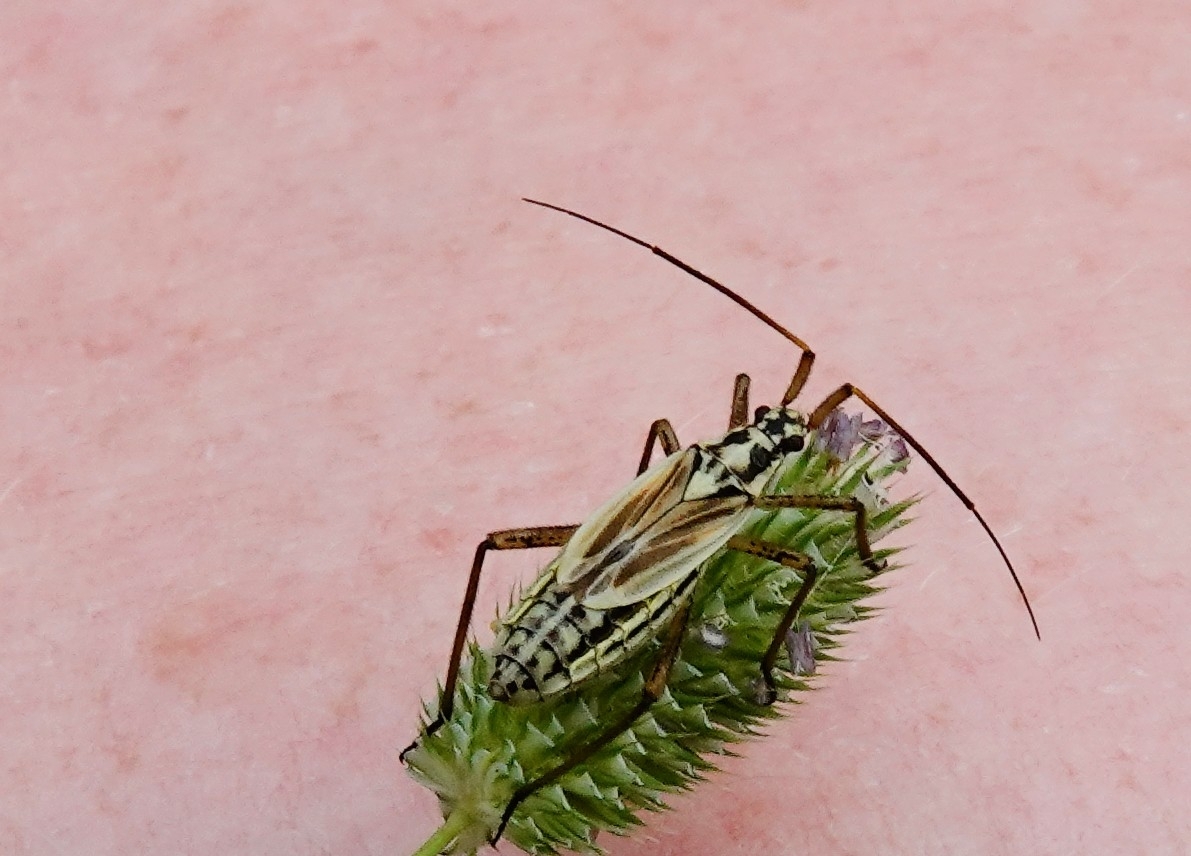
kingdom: Animalia
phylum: Arthropoda
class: Insecta
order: Hemiptera
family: Miridae
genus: Leptopterna
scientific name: Leptopterna dolabrata
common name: Meadow plant bug
